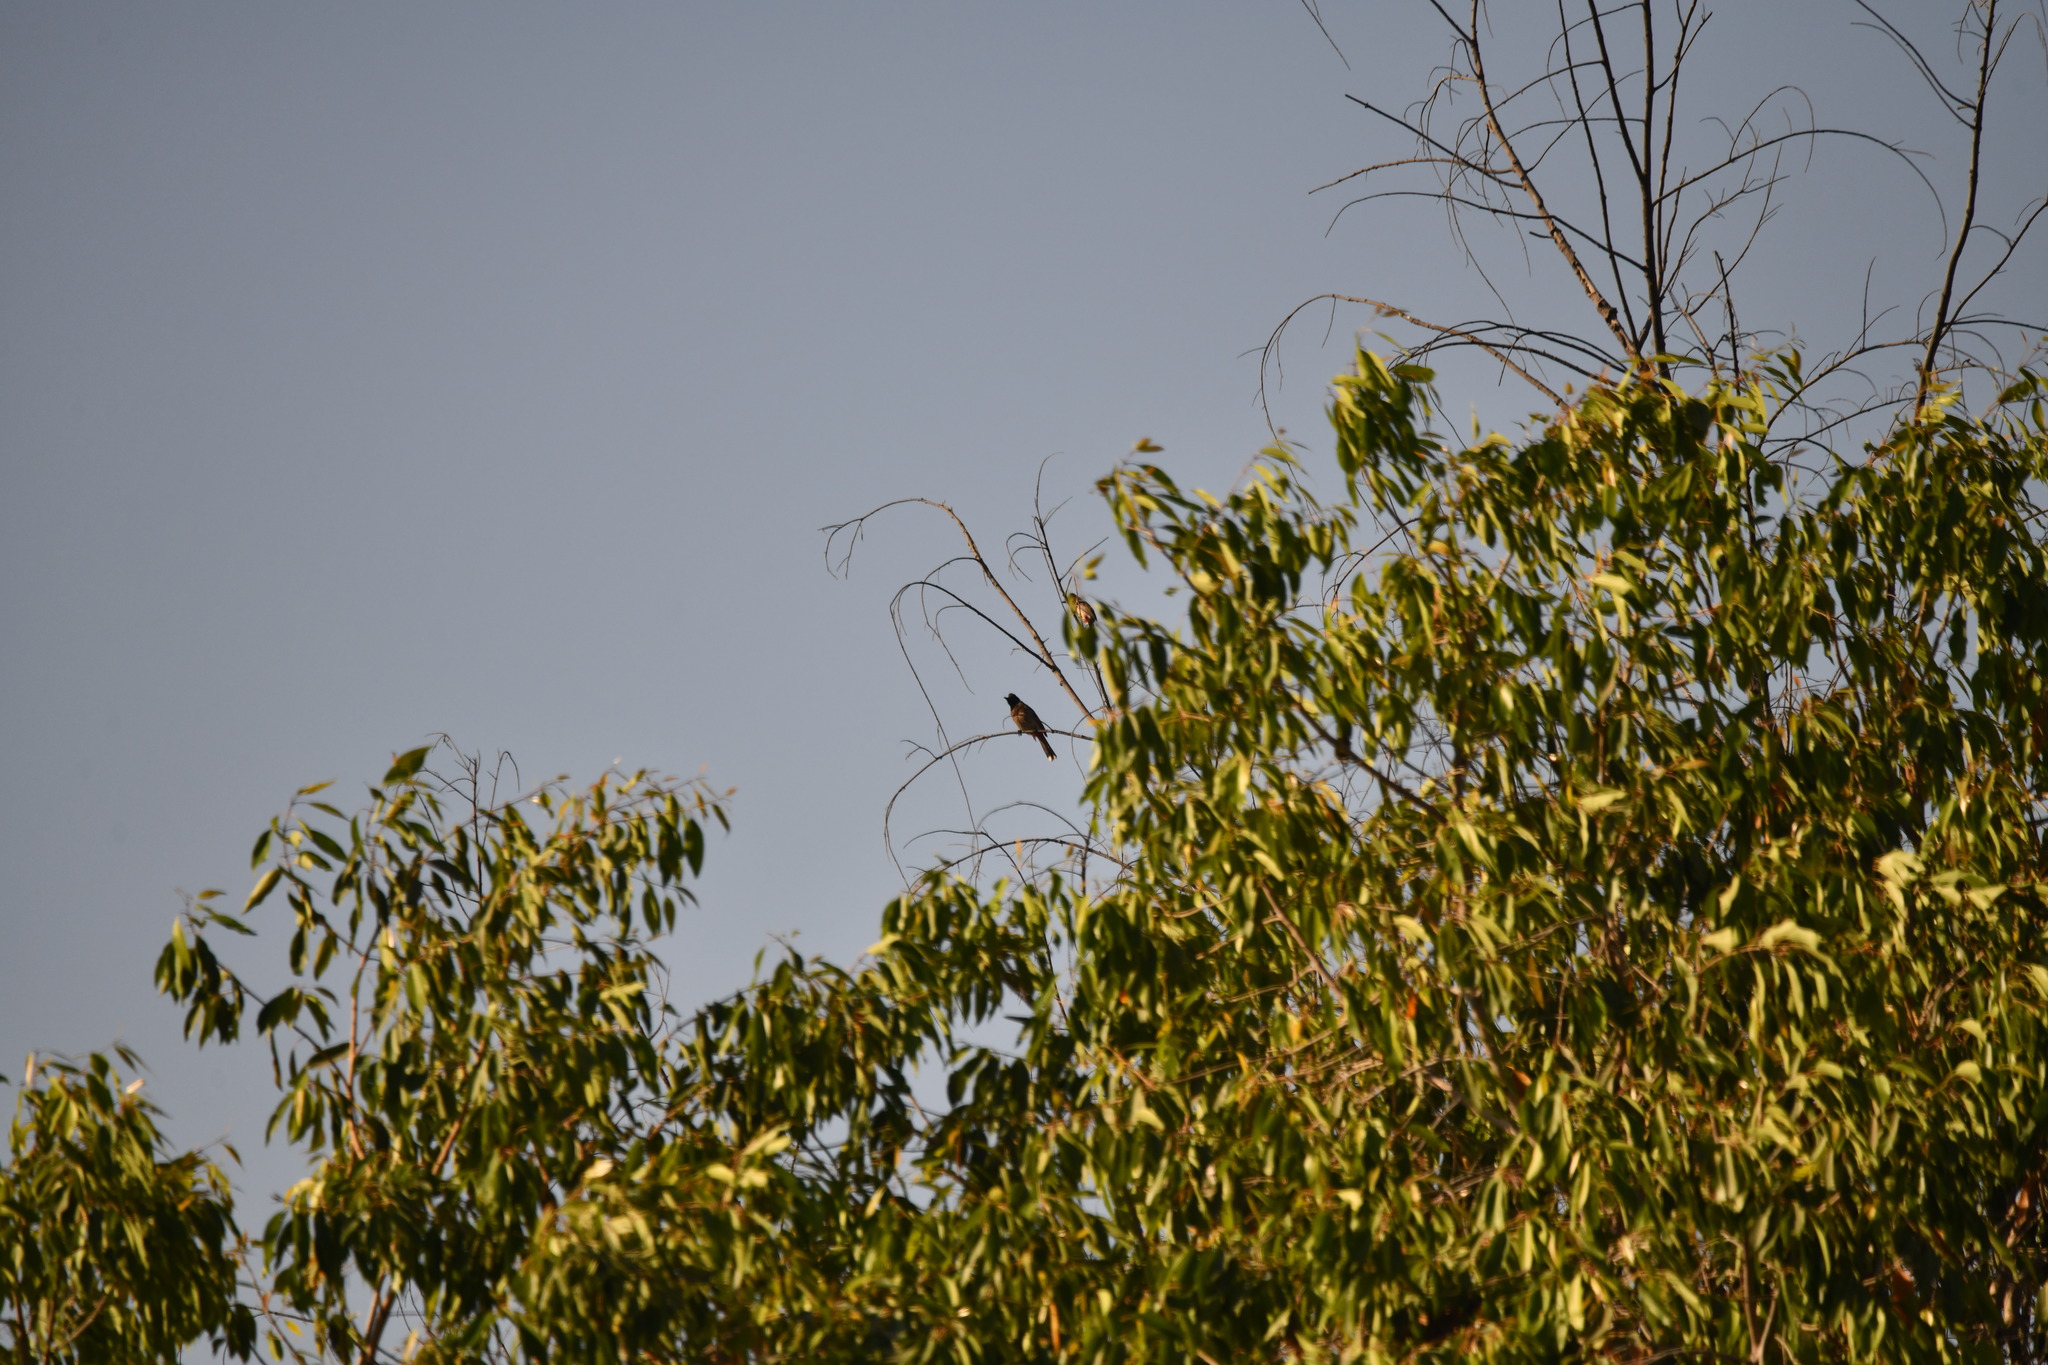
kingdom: Animalia
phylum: Chordata
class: Aves
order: Passeriformes
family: Pycnonotidae
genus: Pycnonotus
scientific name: Pycnonotus cafer
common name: Red-vented bulbul
